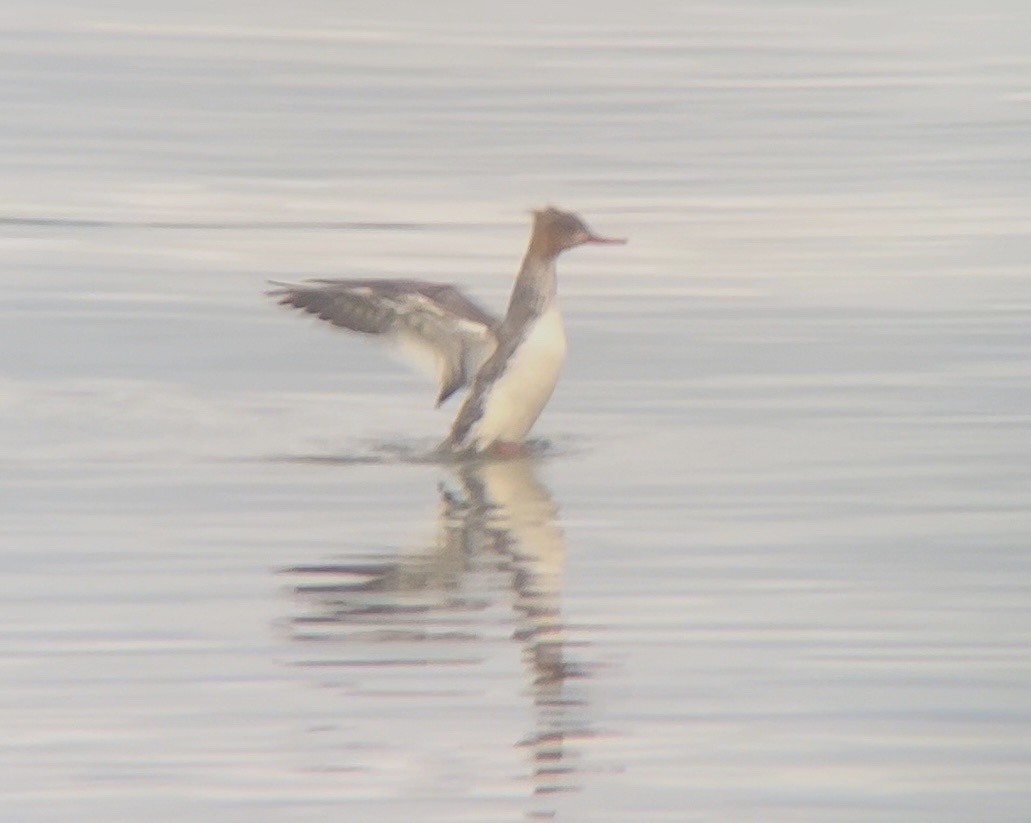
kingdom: Animalia
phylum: Chordata
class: Aves
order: Anseriformes
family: Anatidae
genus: Mergus
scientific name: Mergus serrator
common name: Red-breasted merganser
